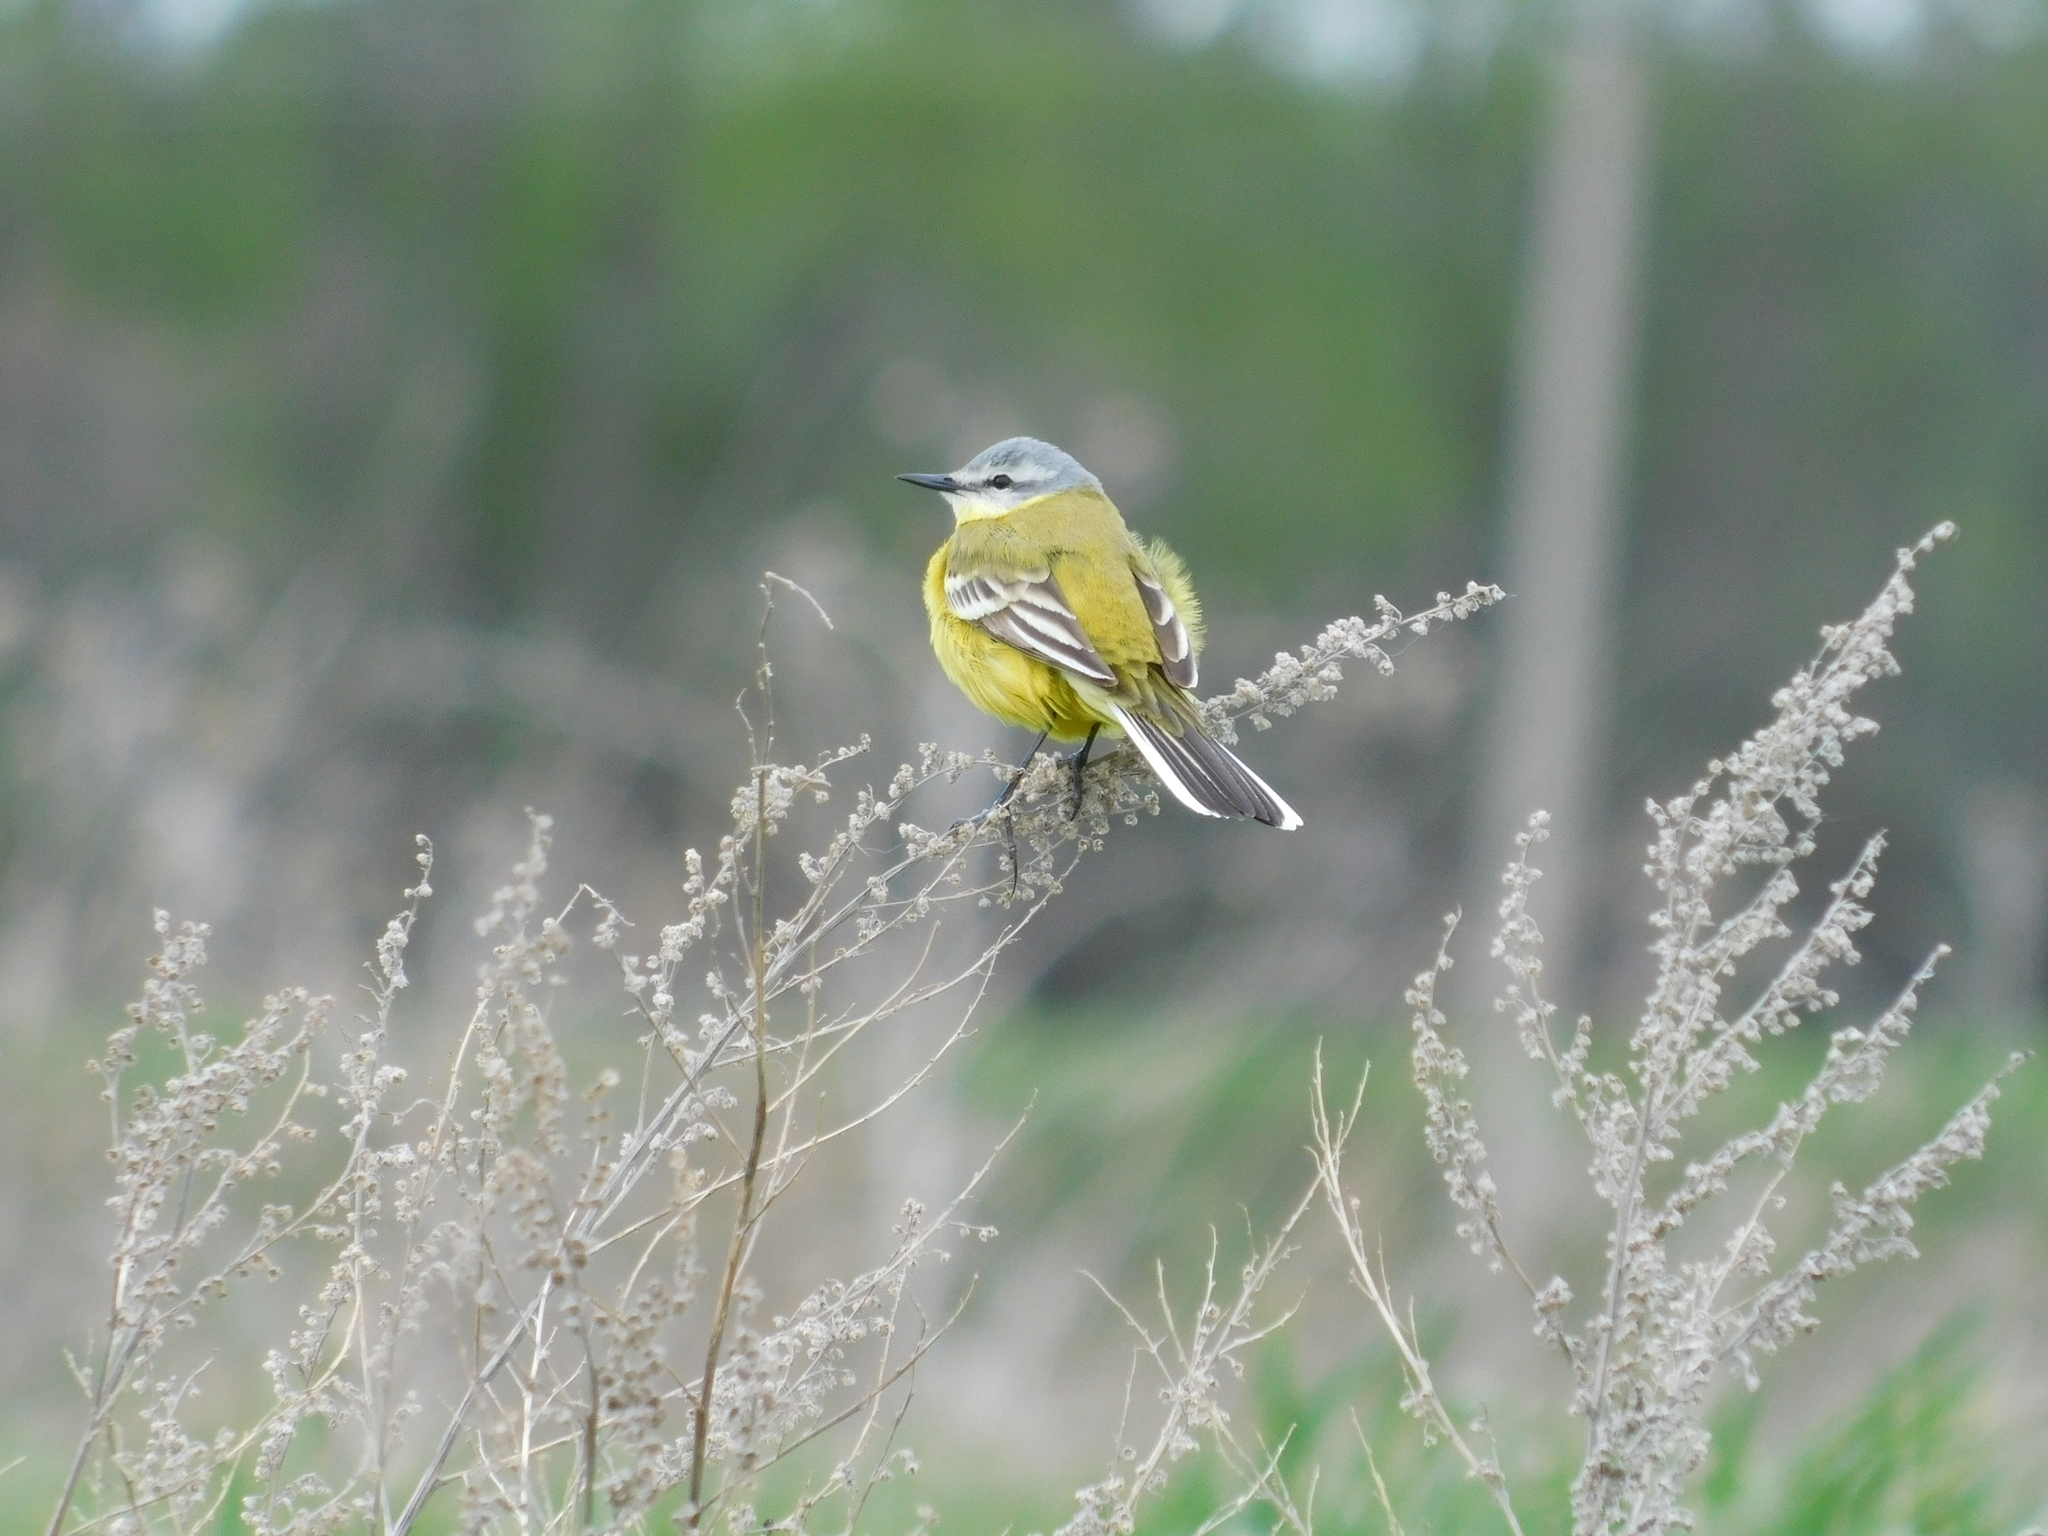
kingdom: Animalia
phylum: Chordata
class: Aves
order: Passeriformes
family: Motacillidae
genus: Motacilla
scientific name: Motacilla flava
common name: Western yellow wagtail
